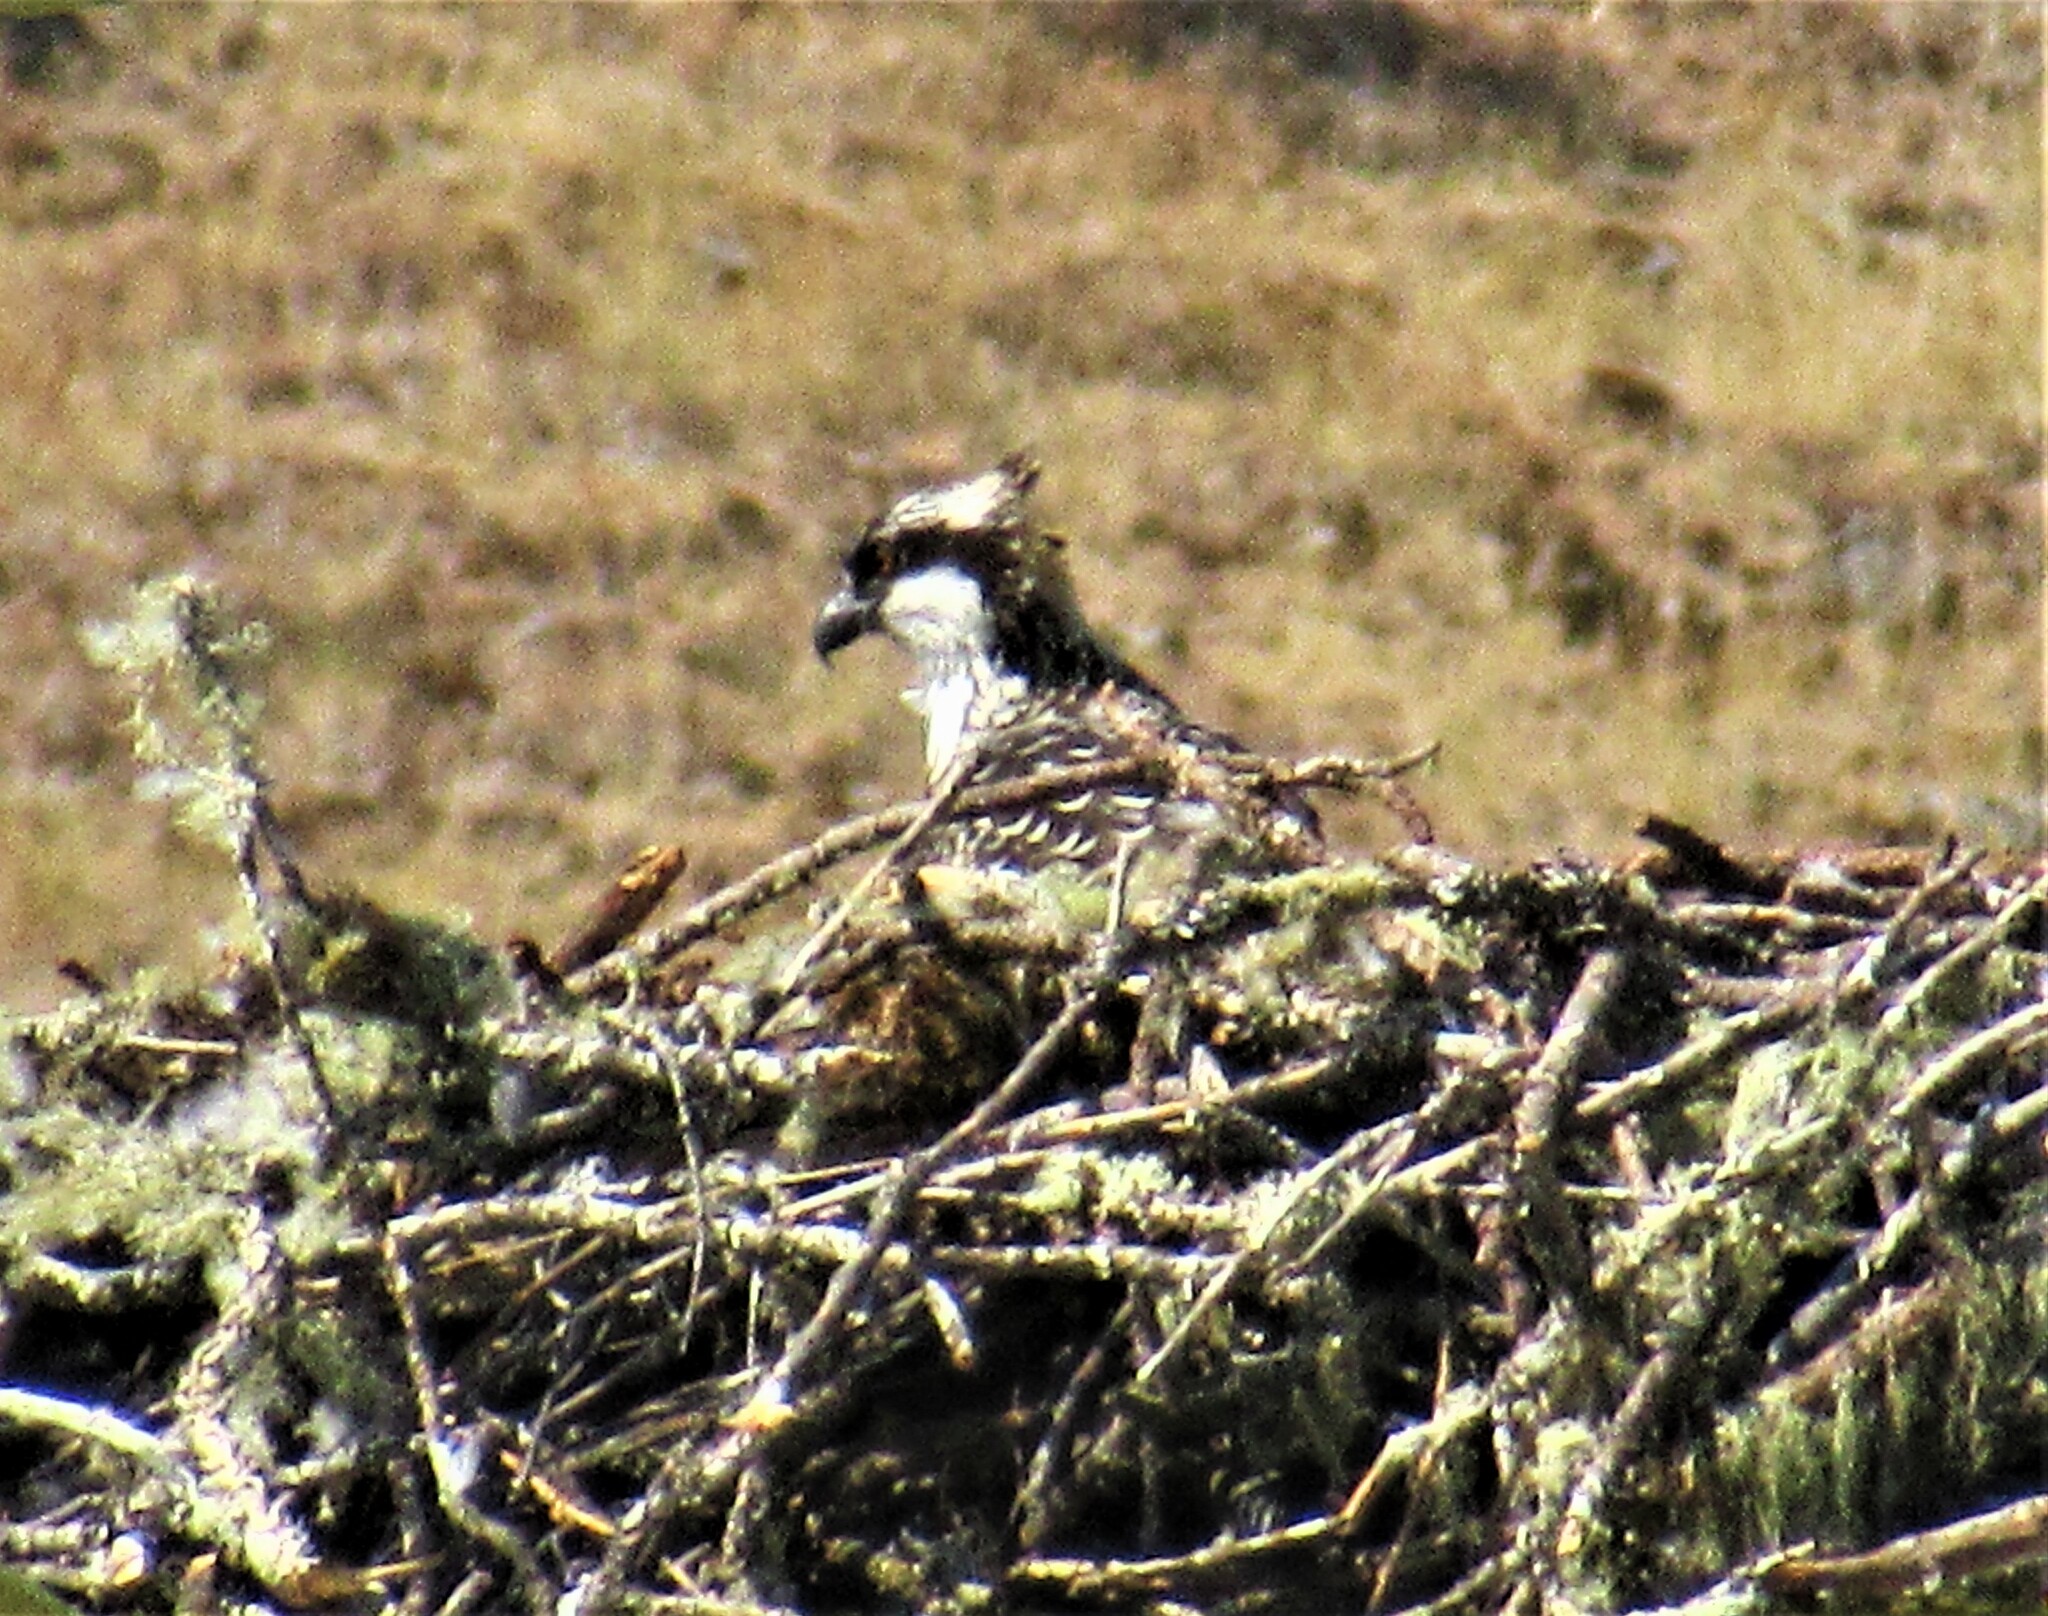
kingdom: Animalia
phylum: Chordata
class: Aves
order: Accipitriformes
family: Pandionidae
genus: Pandion
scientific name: Pandion haliaetus
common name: Osprey
